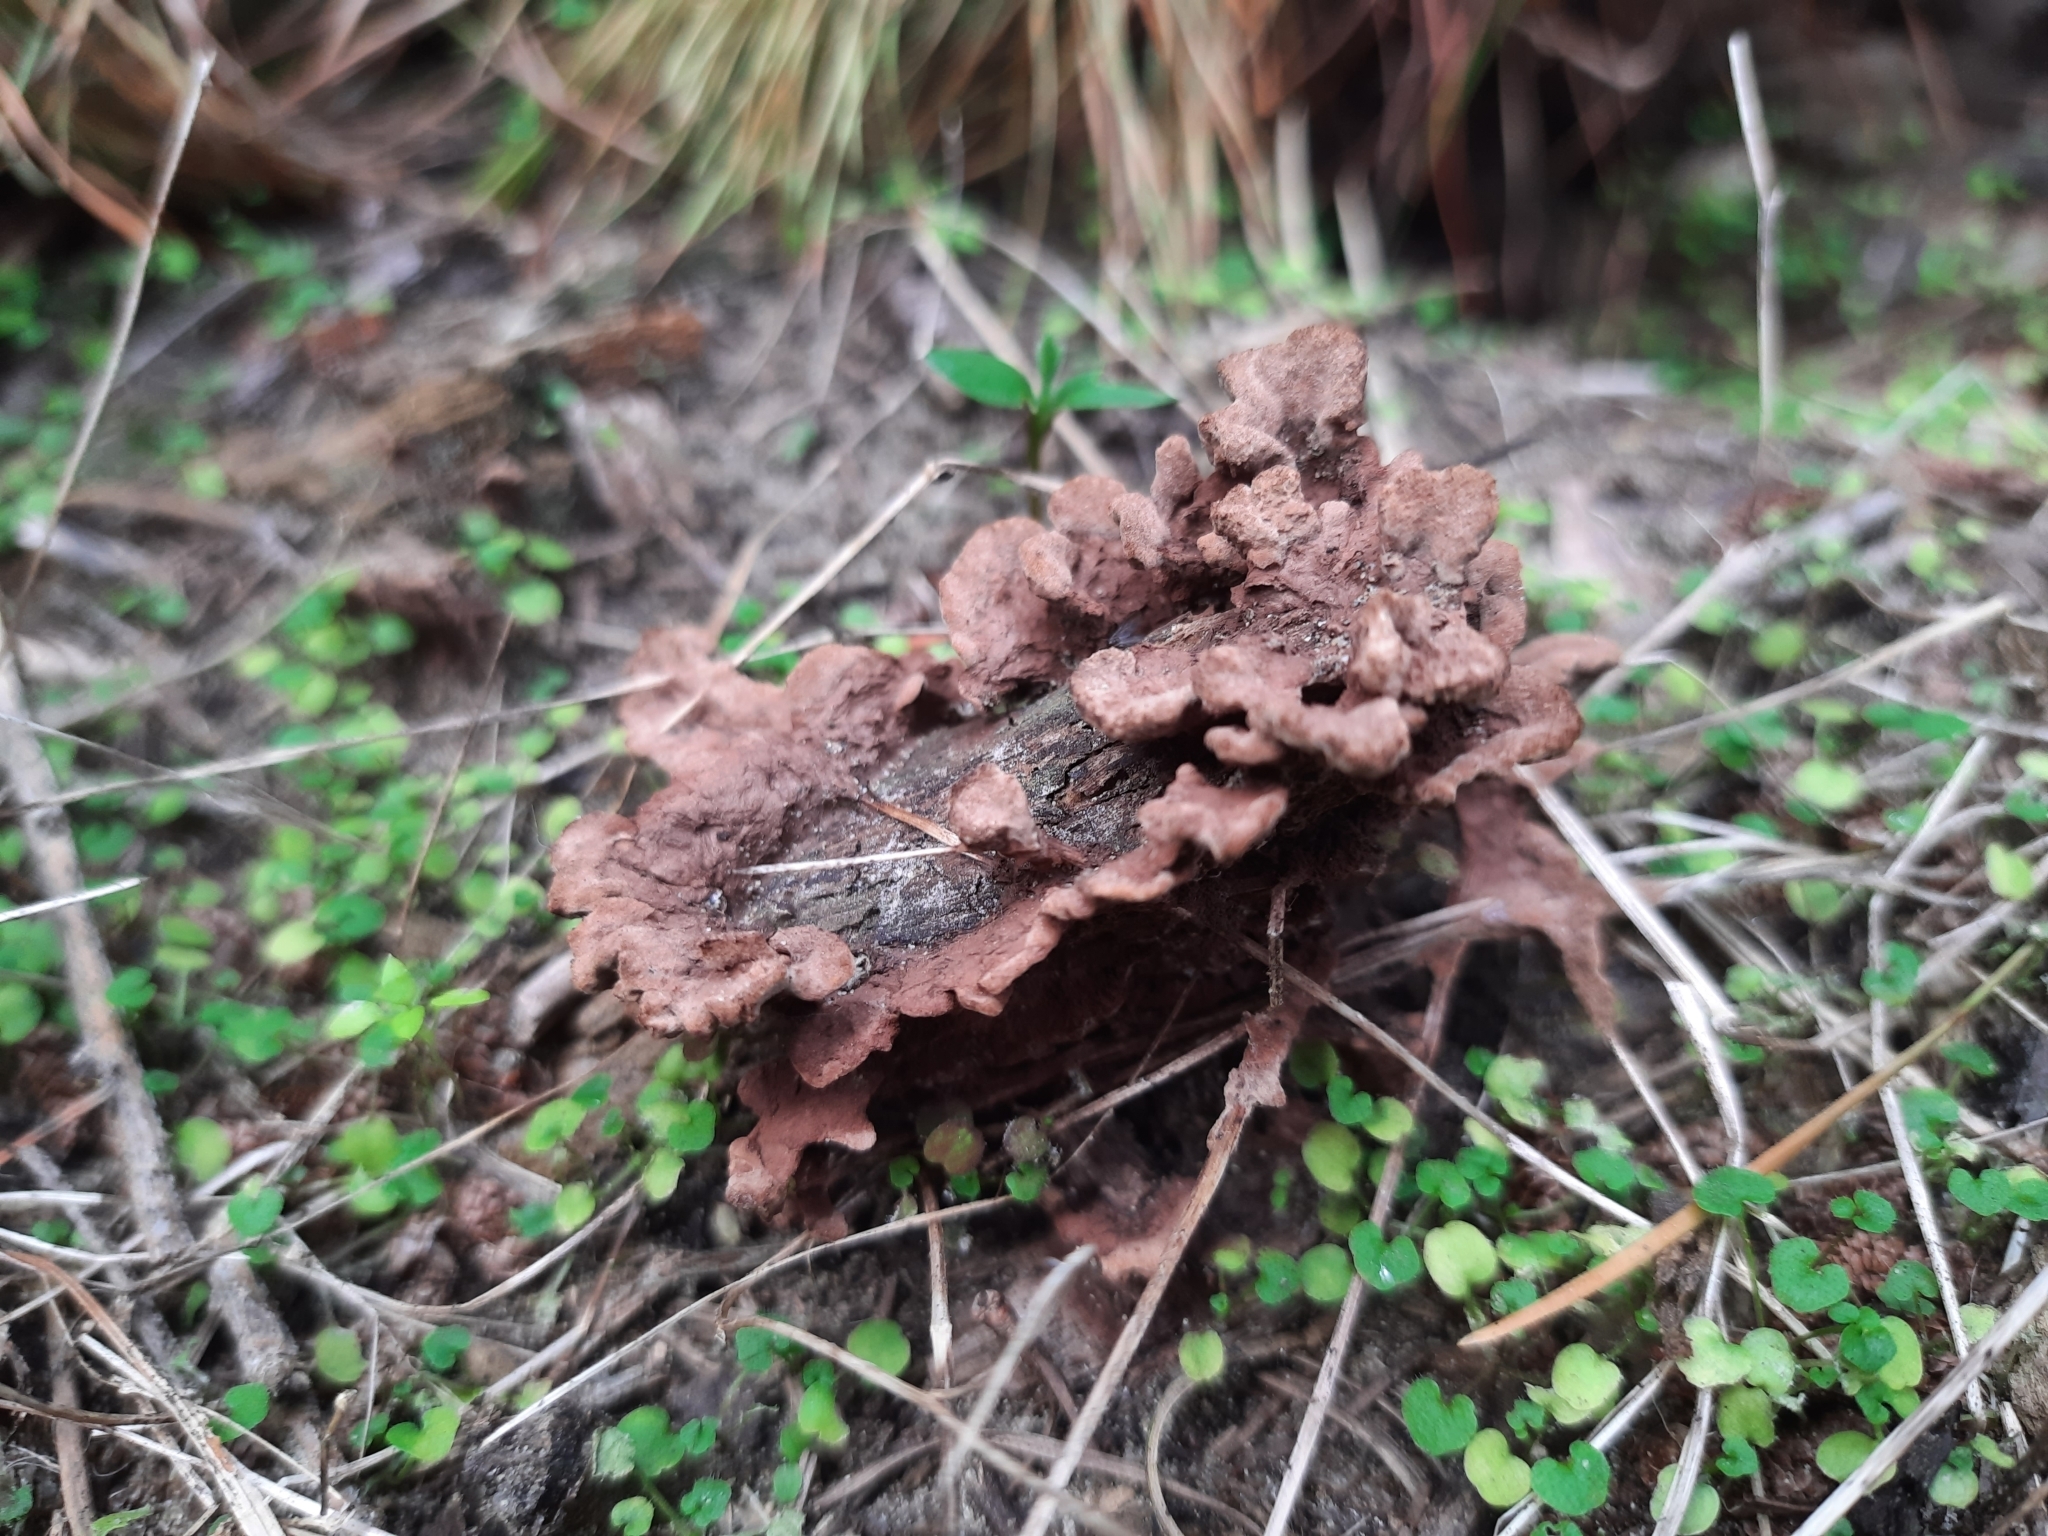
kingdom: Fungi
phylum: Basidiomycota
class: Agaricomycetes
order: Thelephorales
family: Thelephoraceae
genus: Thelephora
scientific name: Thelephora terrestris
